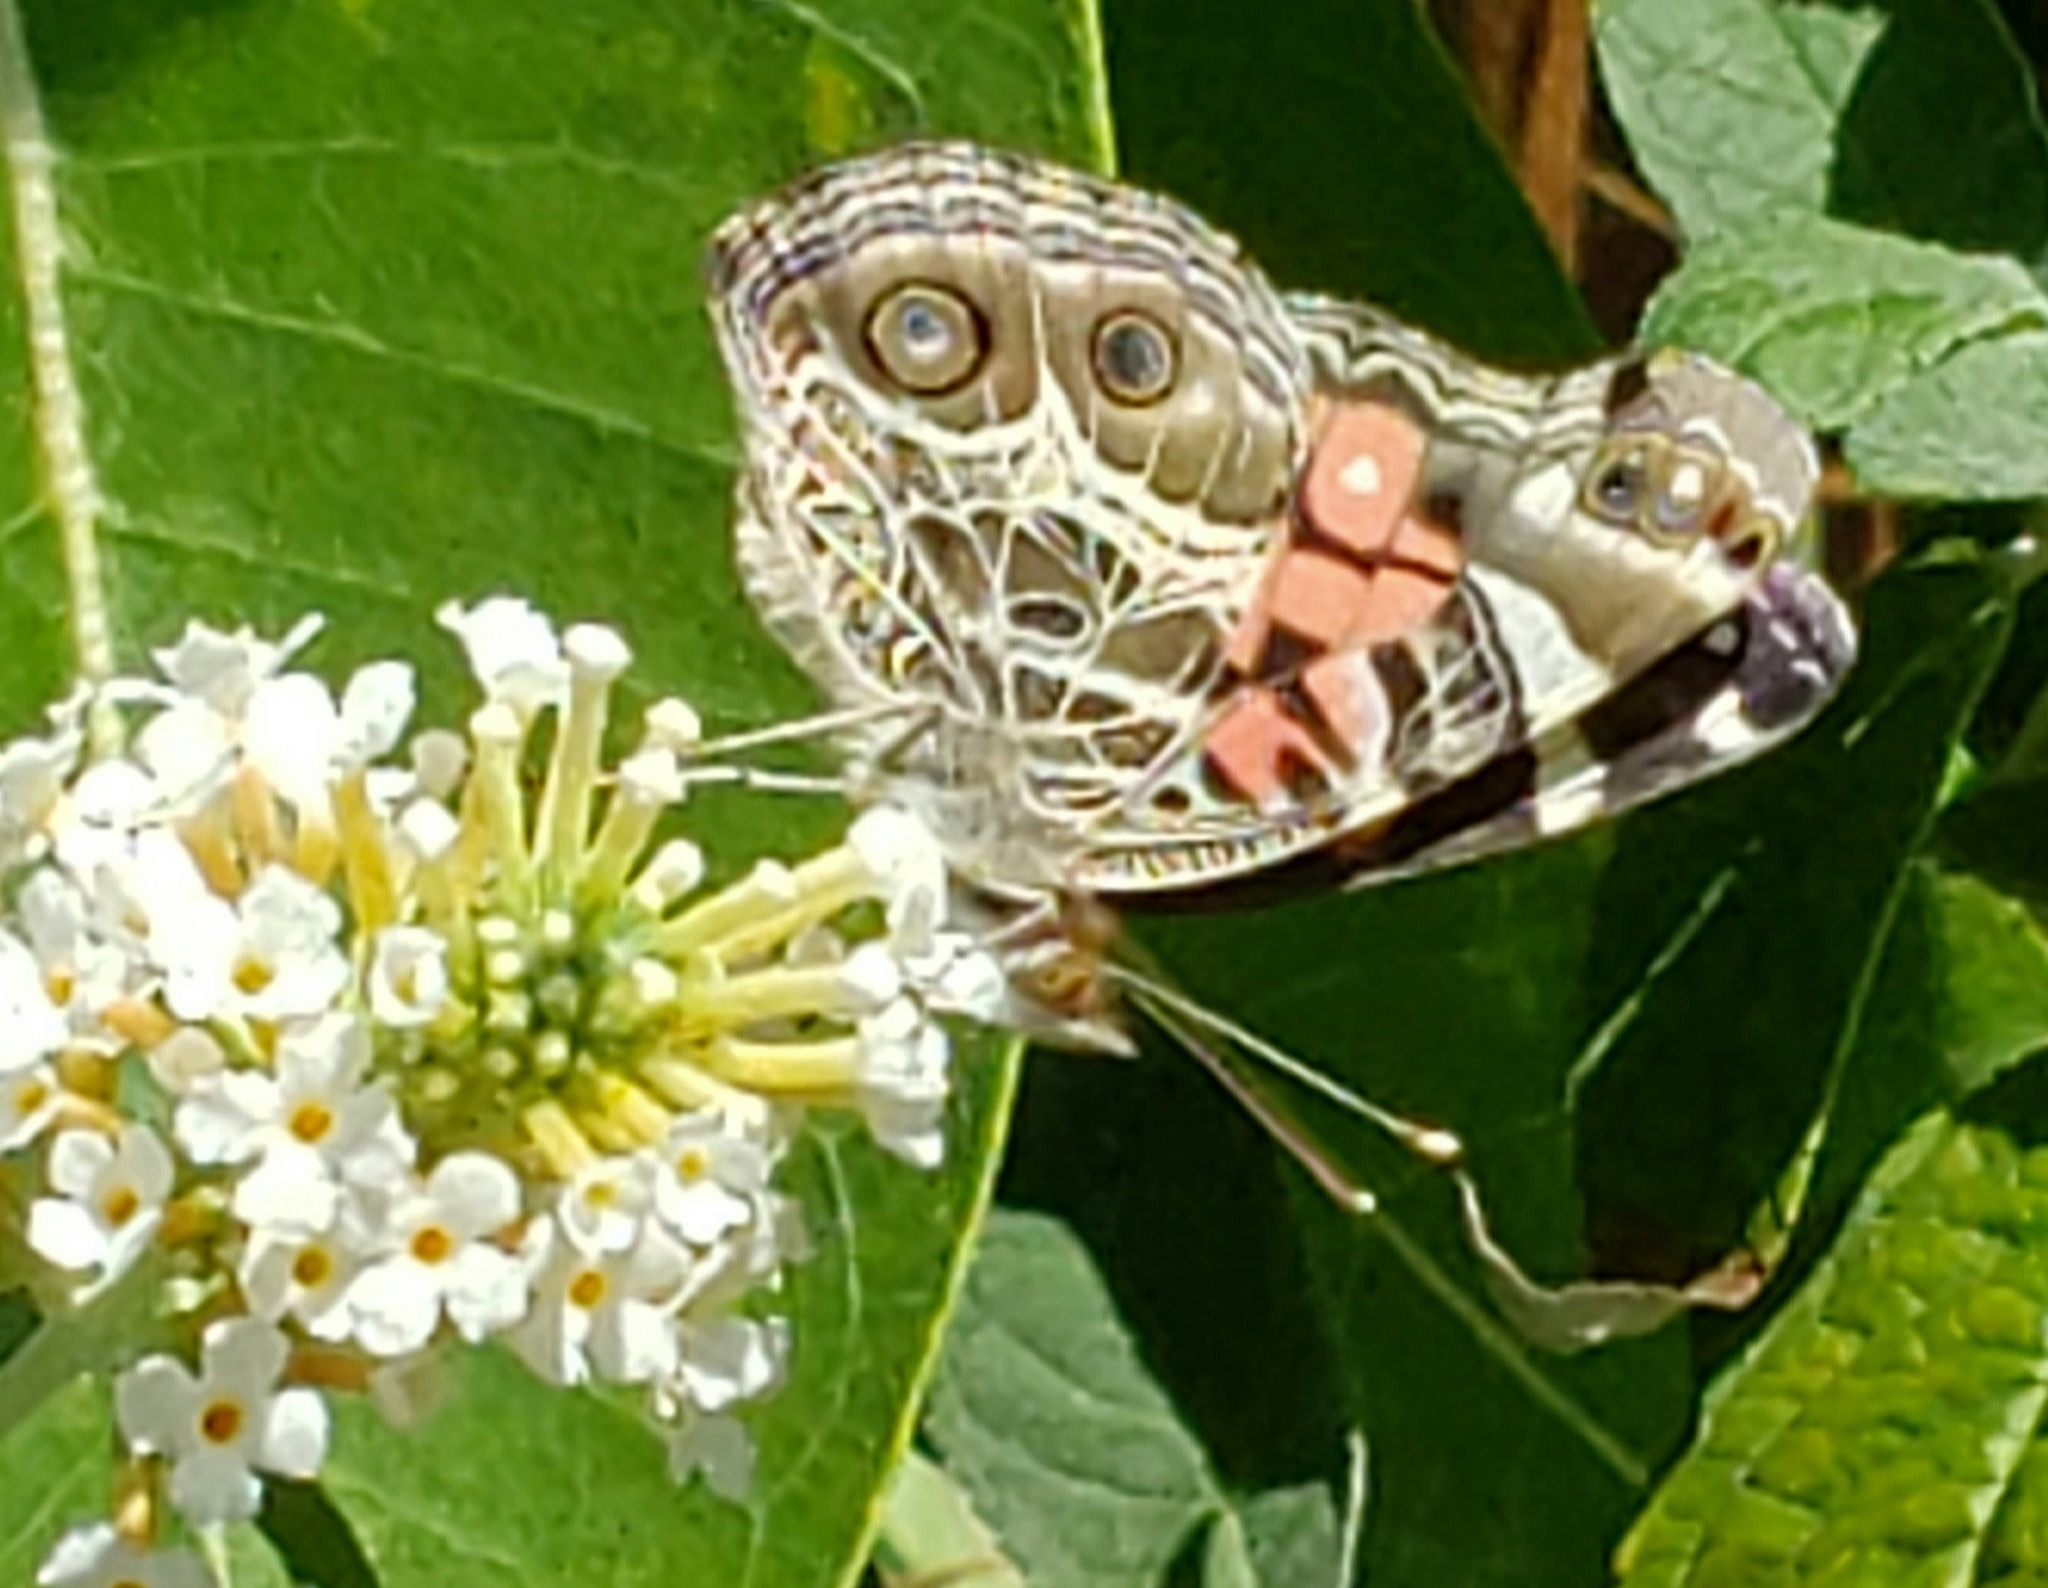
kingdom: Animalia
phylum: Arthropoda
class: Insecta
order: Lepidoptera
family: Nymphalidae
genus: Vanessa
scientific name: Vanessa virginiensis
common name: American lady
